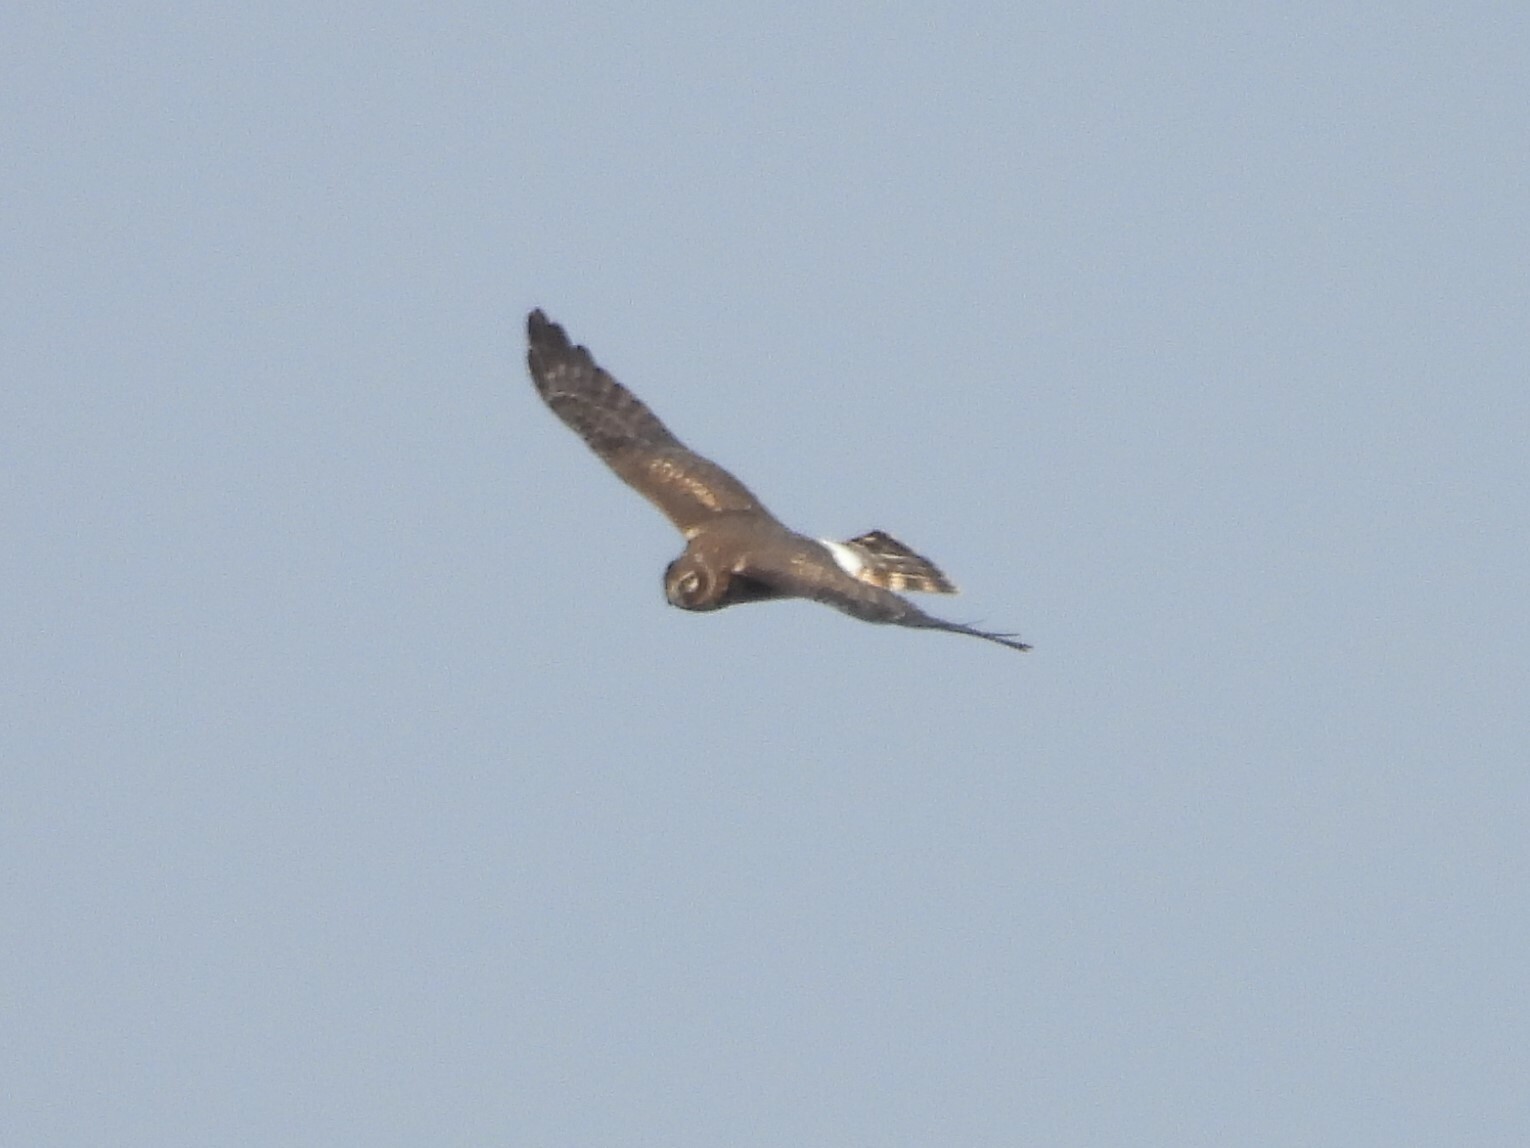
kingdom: Animalia
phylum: Chordata
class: Aves
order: Accipitriformes
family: Accipitridae
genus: Circus
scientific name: Circus cyaneus
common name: Hen harrier
